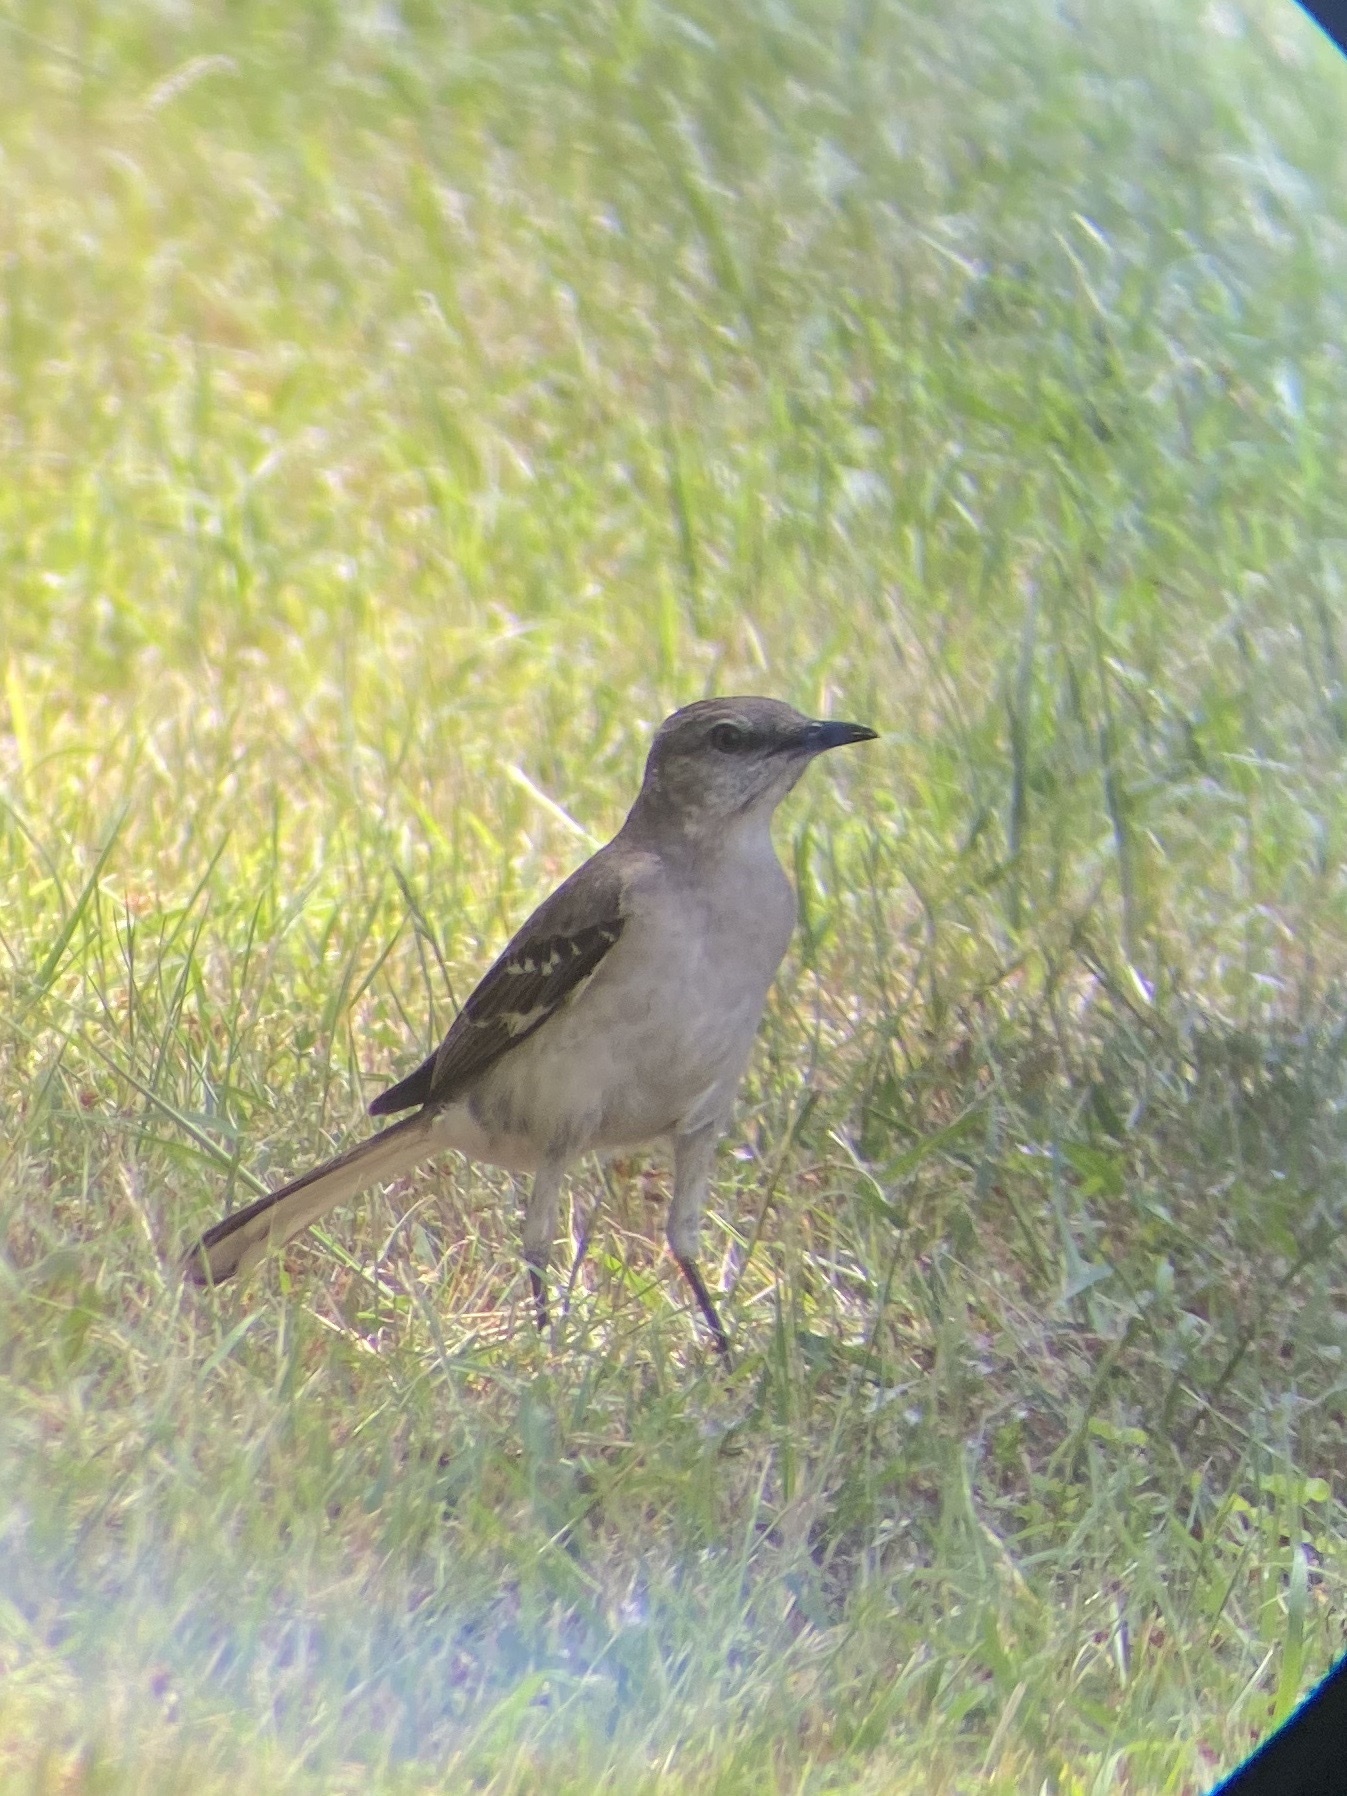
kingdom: Animalia
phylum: Chordata
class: Aves
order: Passeriformes
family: Mimidae
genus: Mimus
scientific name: Mimus polyglottos
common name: Northern mockingbird
